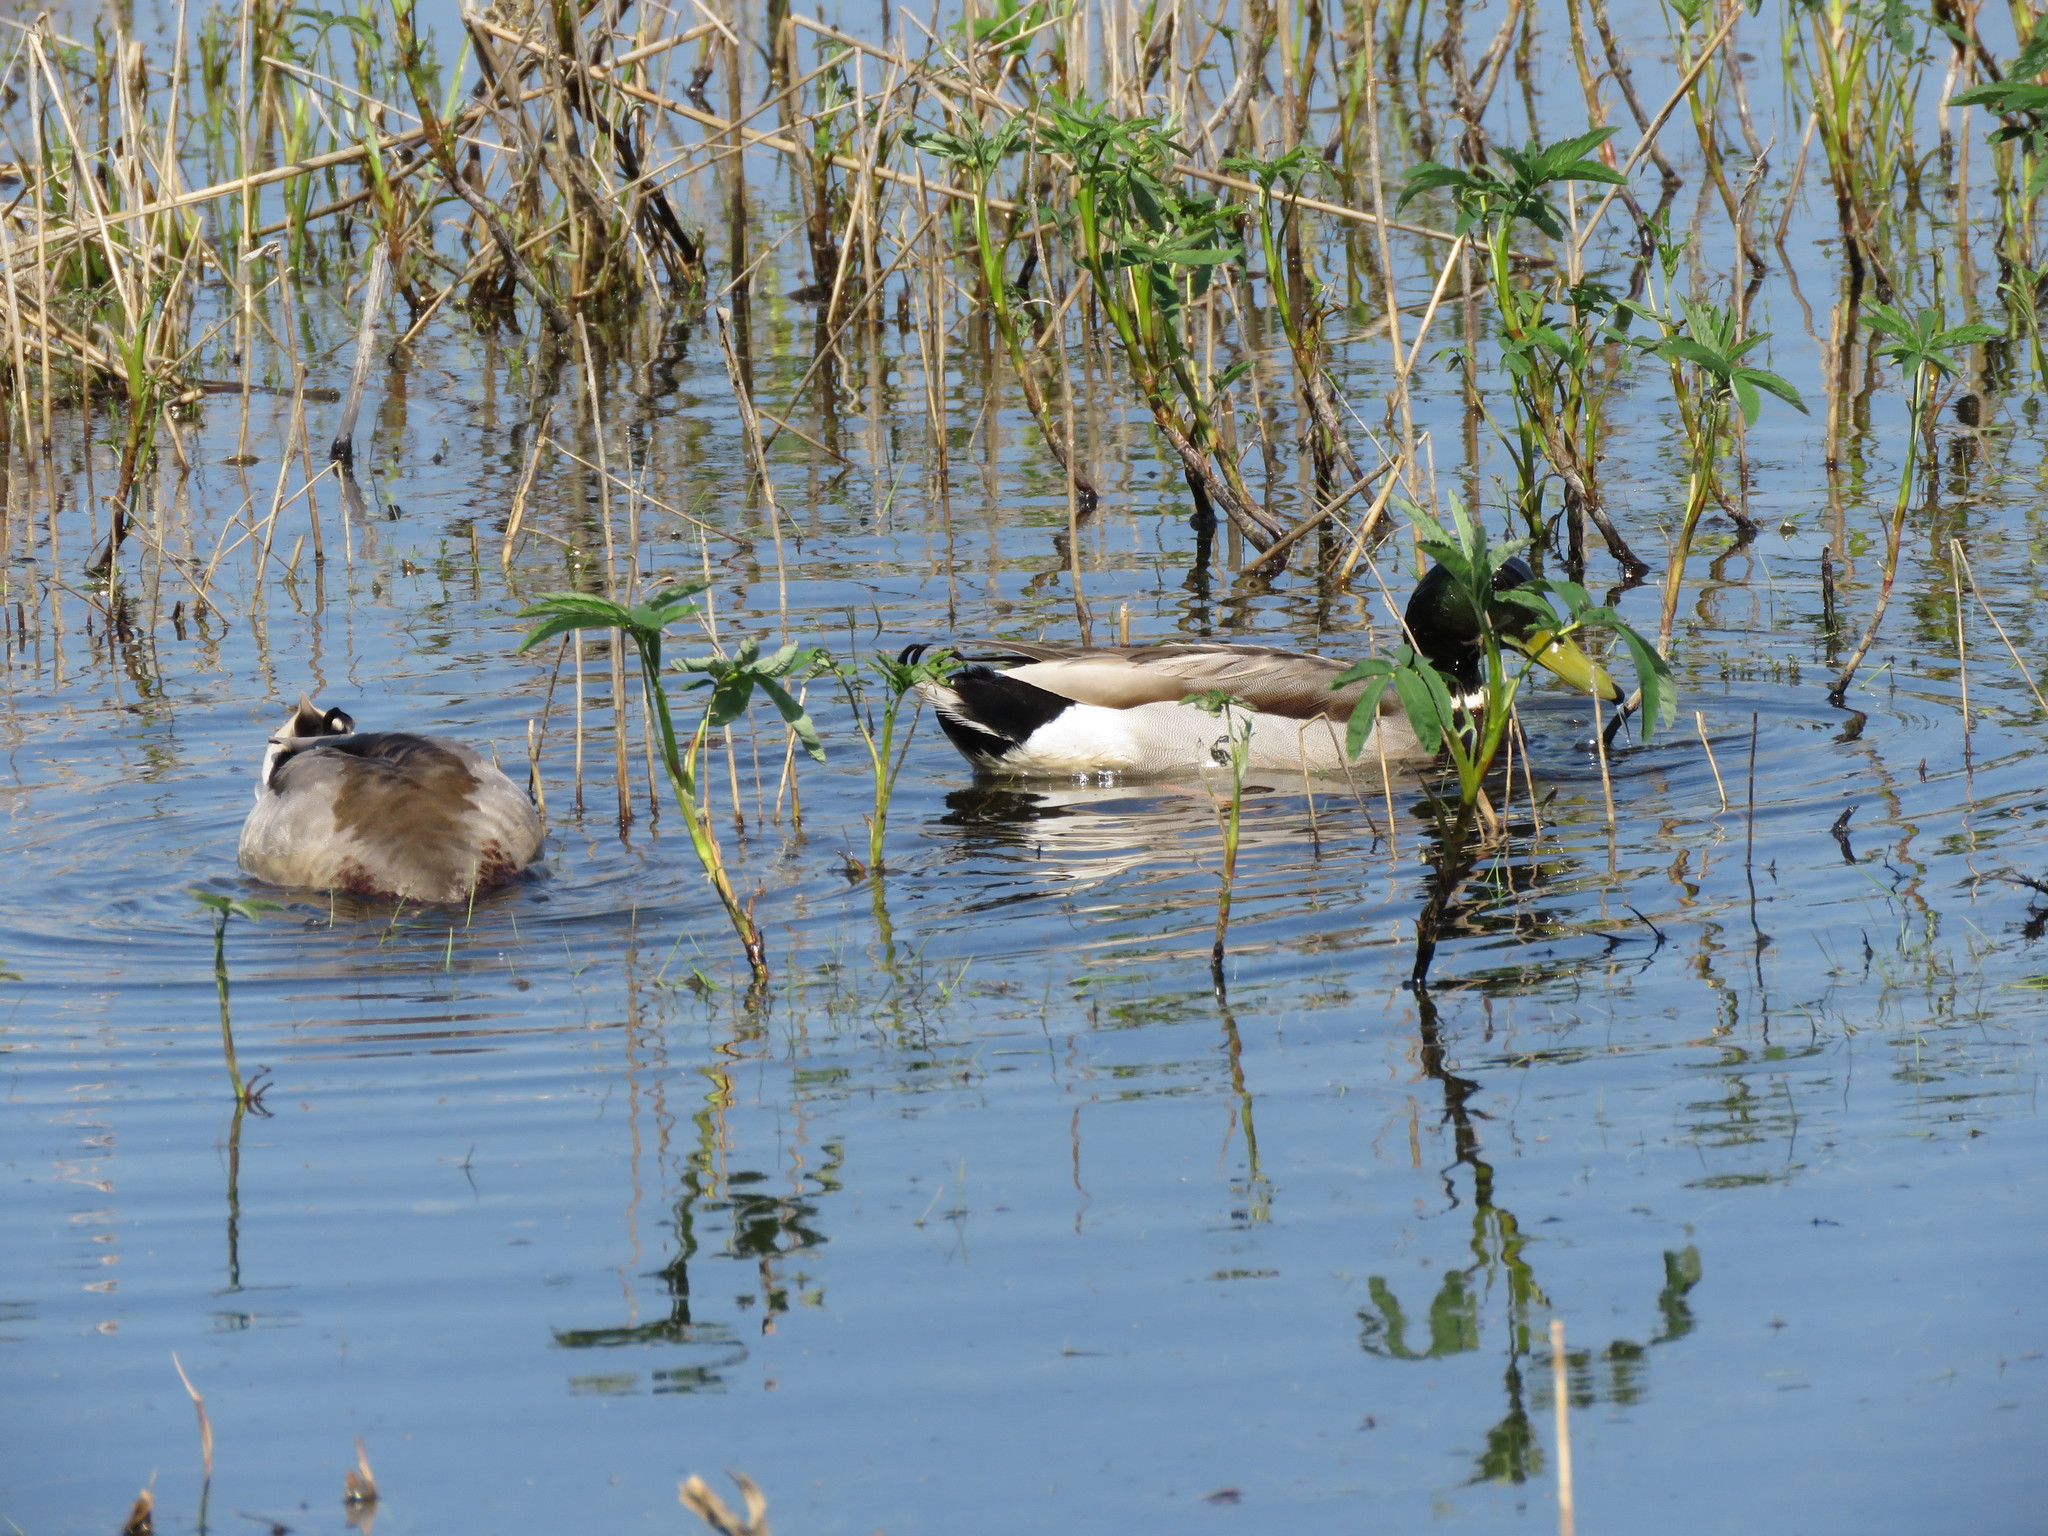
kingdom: Animalia
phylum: Chordata
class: Aves
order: Anseriformes
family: Anatidae
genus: Anas
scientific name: Anas platyrhynchos
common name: Mallard
